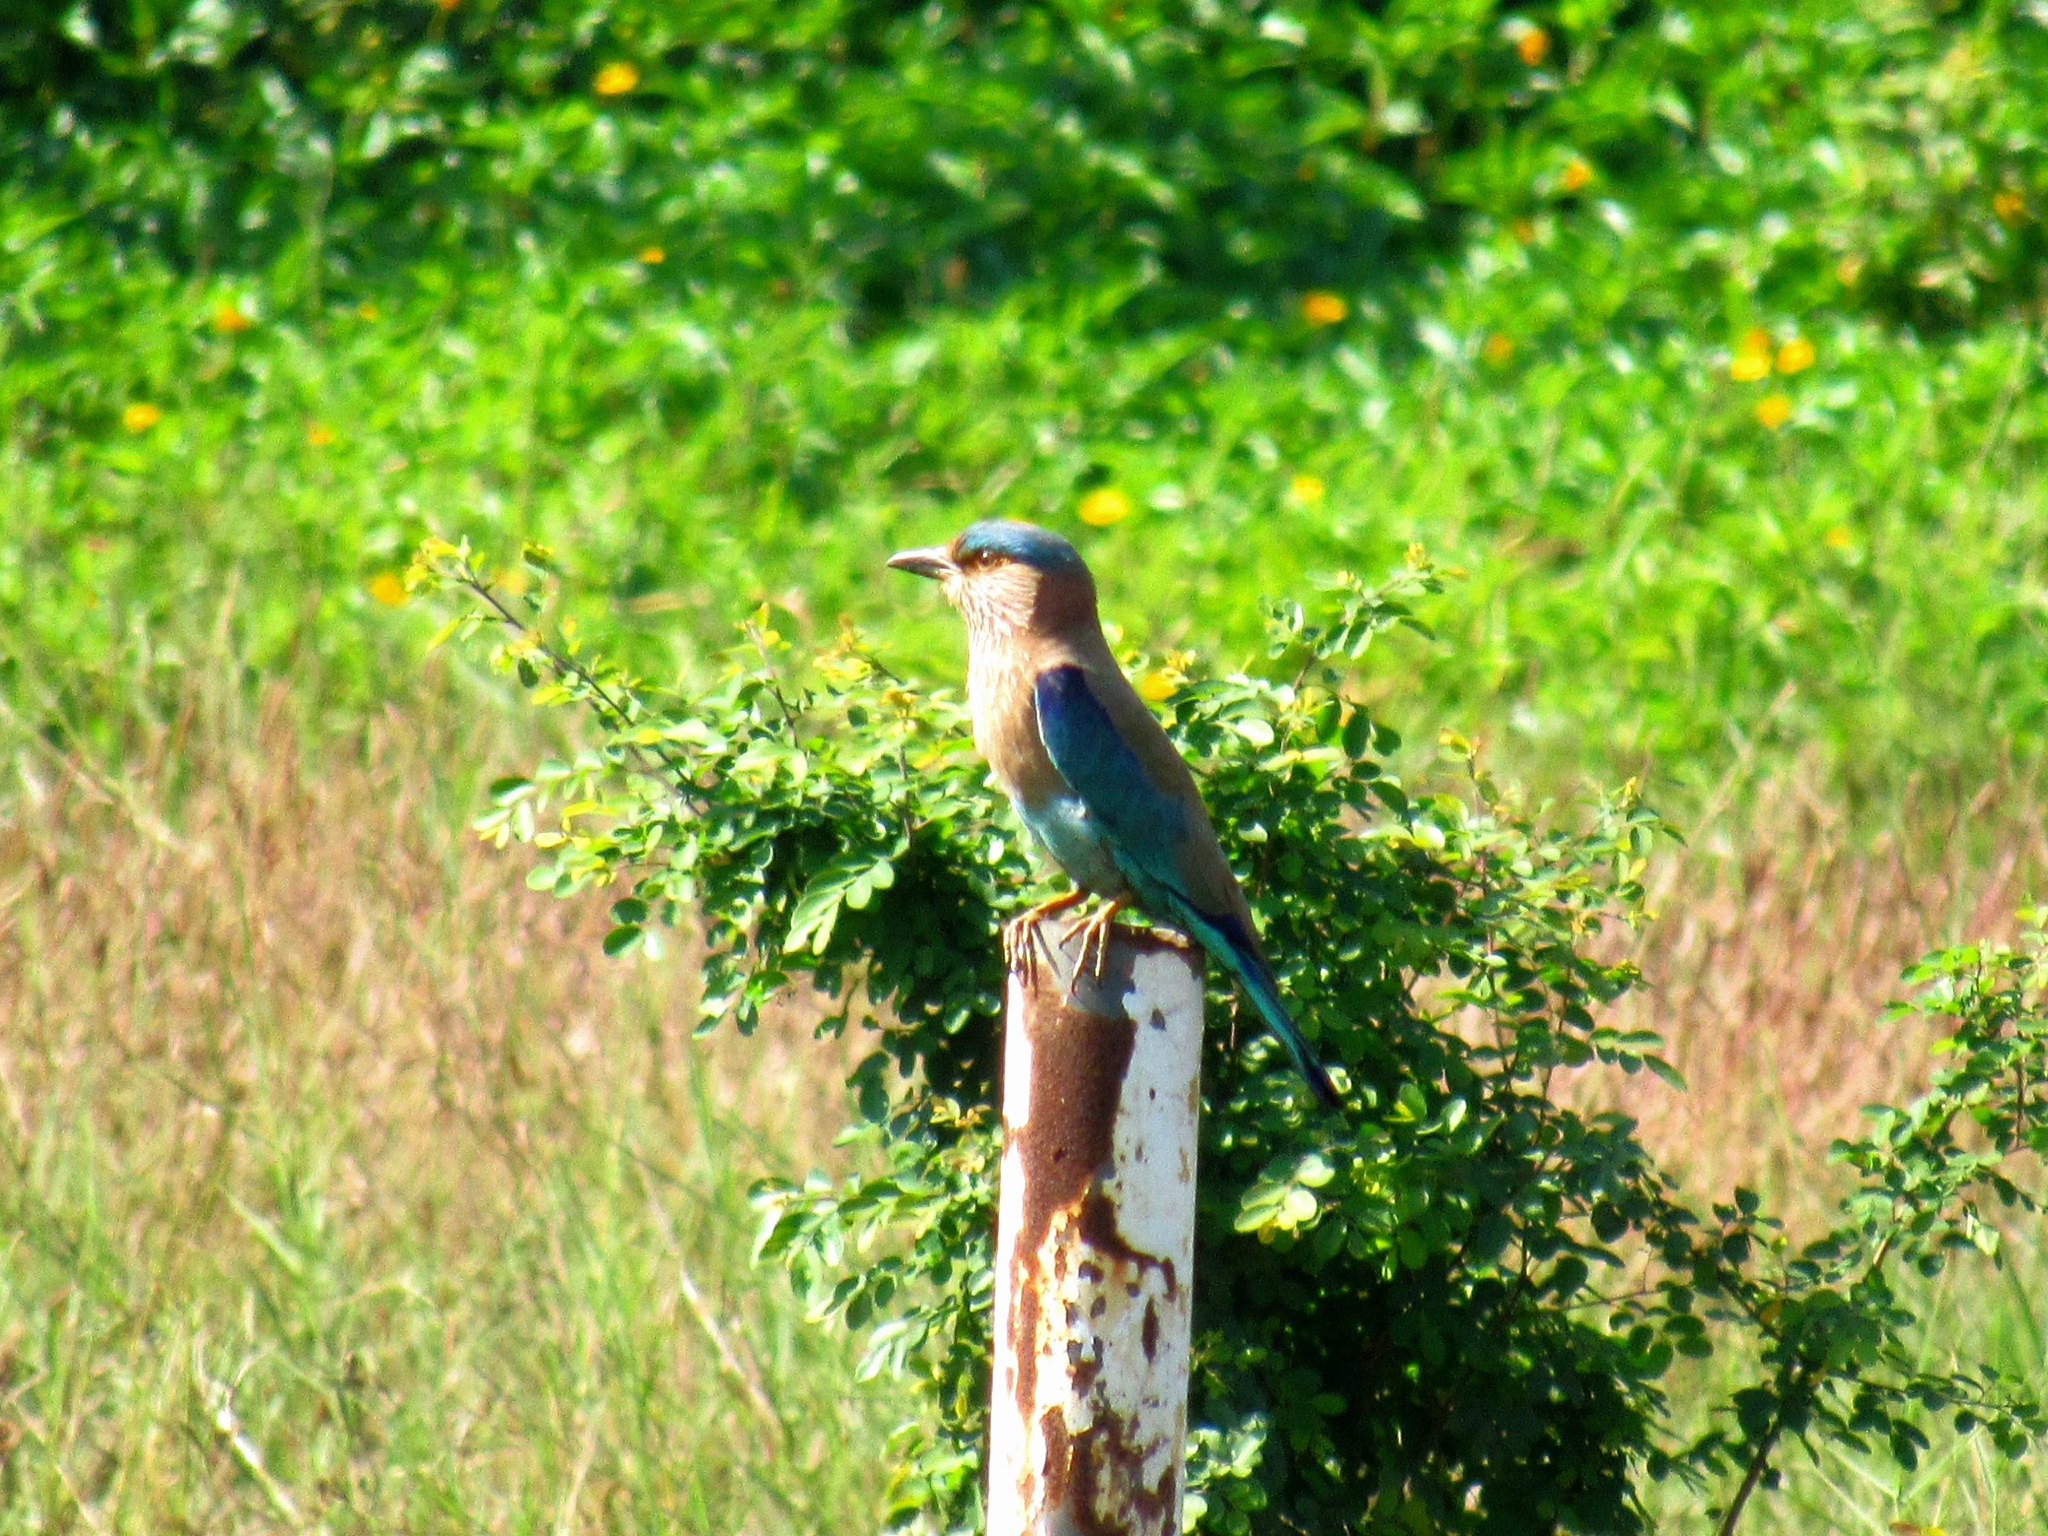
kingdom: Animalia
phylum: Chordata
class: Aves
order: Coraciiformes
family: Coraciidae
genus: Coracias
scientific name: Coracias benghalensis
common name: Indian roller
